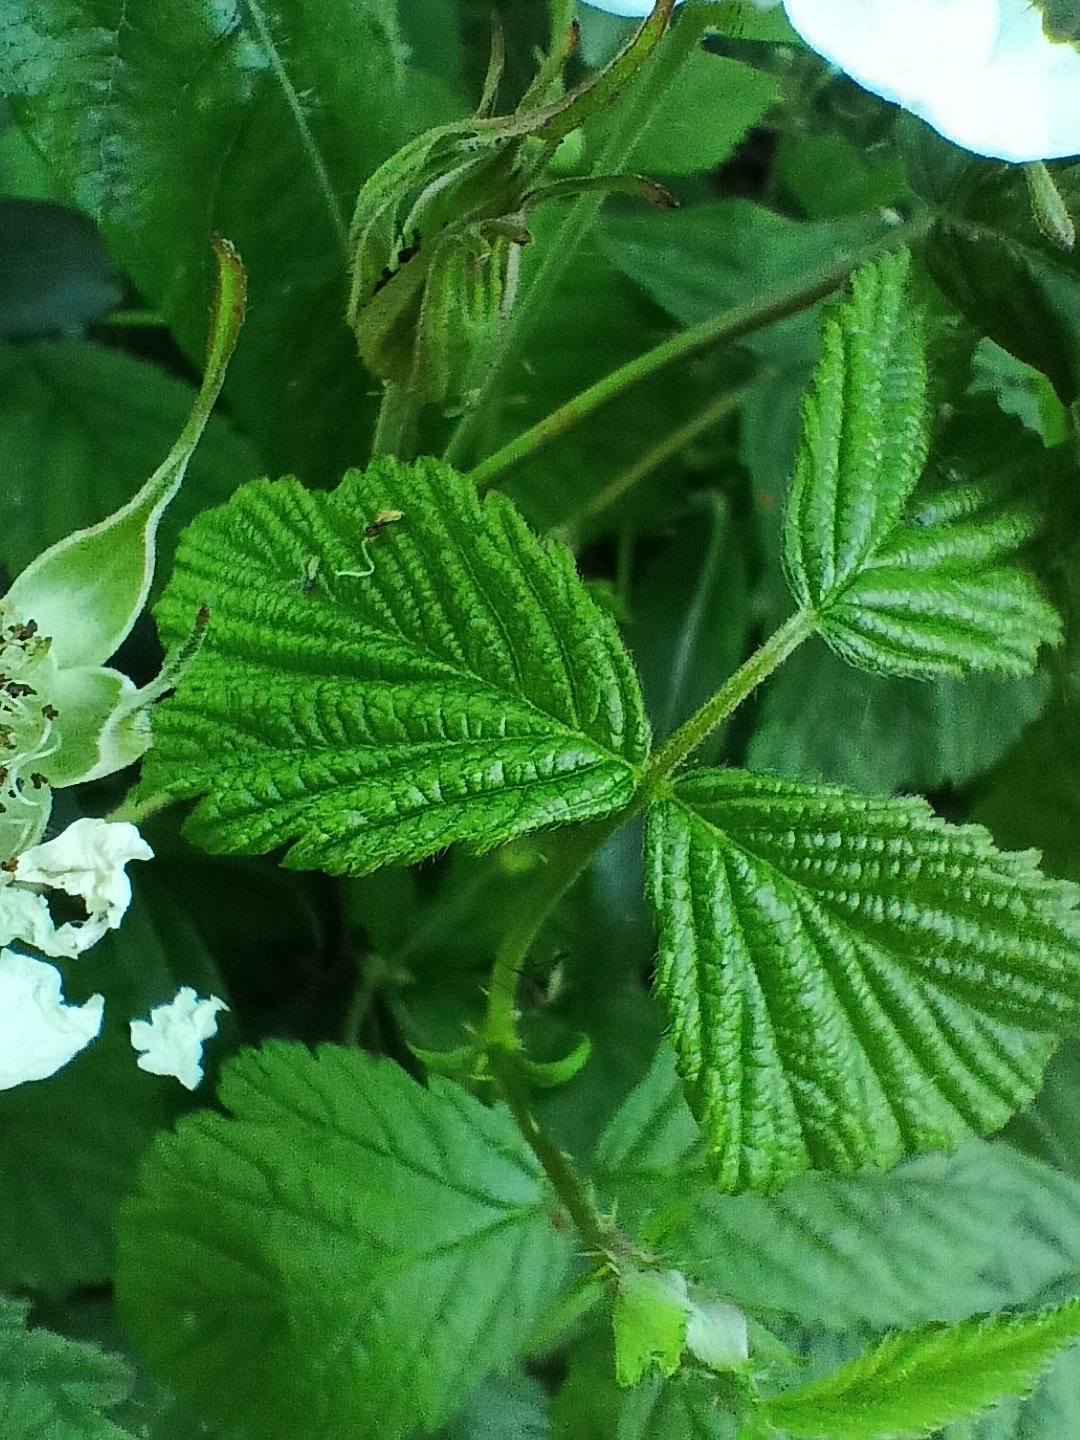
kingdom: Plantae
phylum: Tracheophyta
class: Magnoliopsida
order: Rosales
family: Rosaceae
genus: Rubus
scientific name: Rubus caesius
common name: Dewberry
